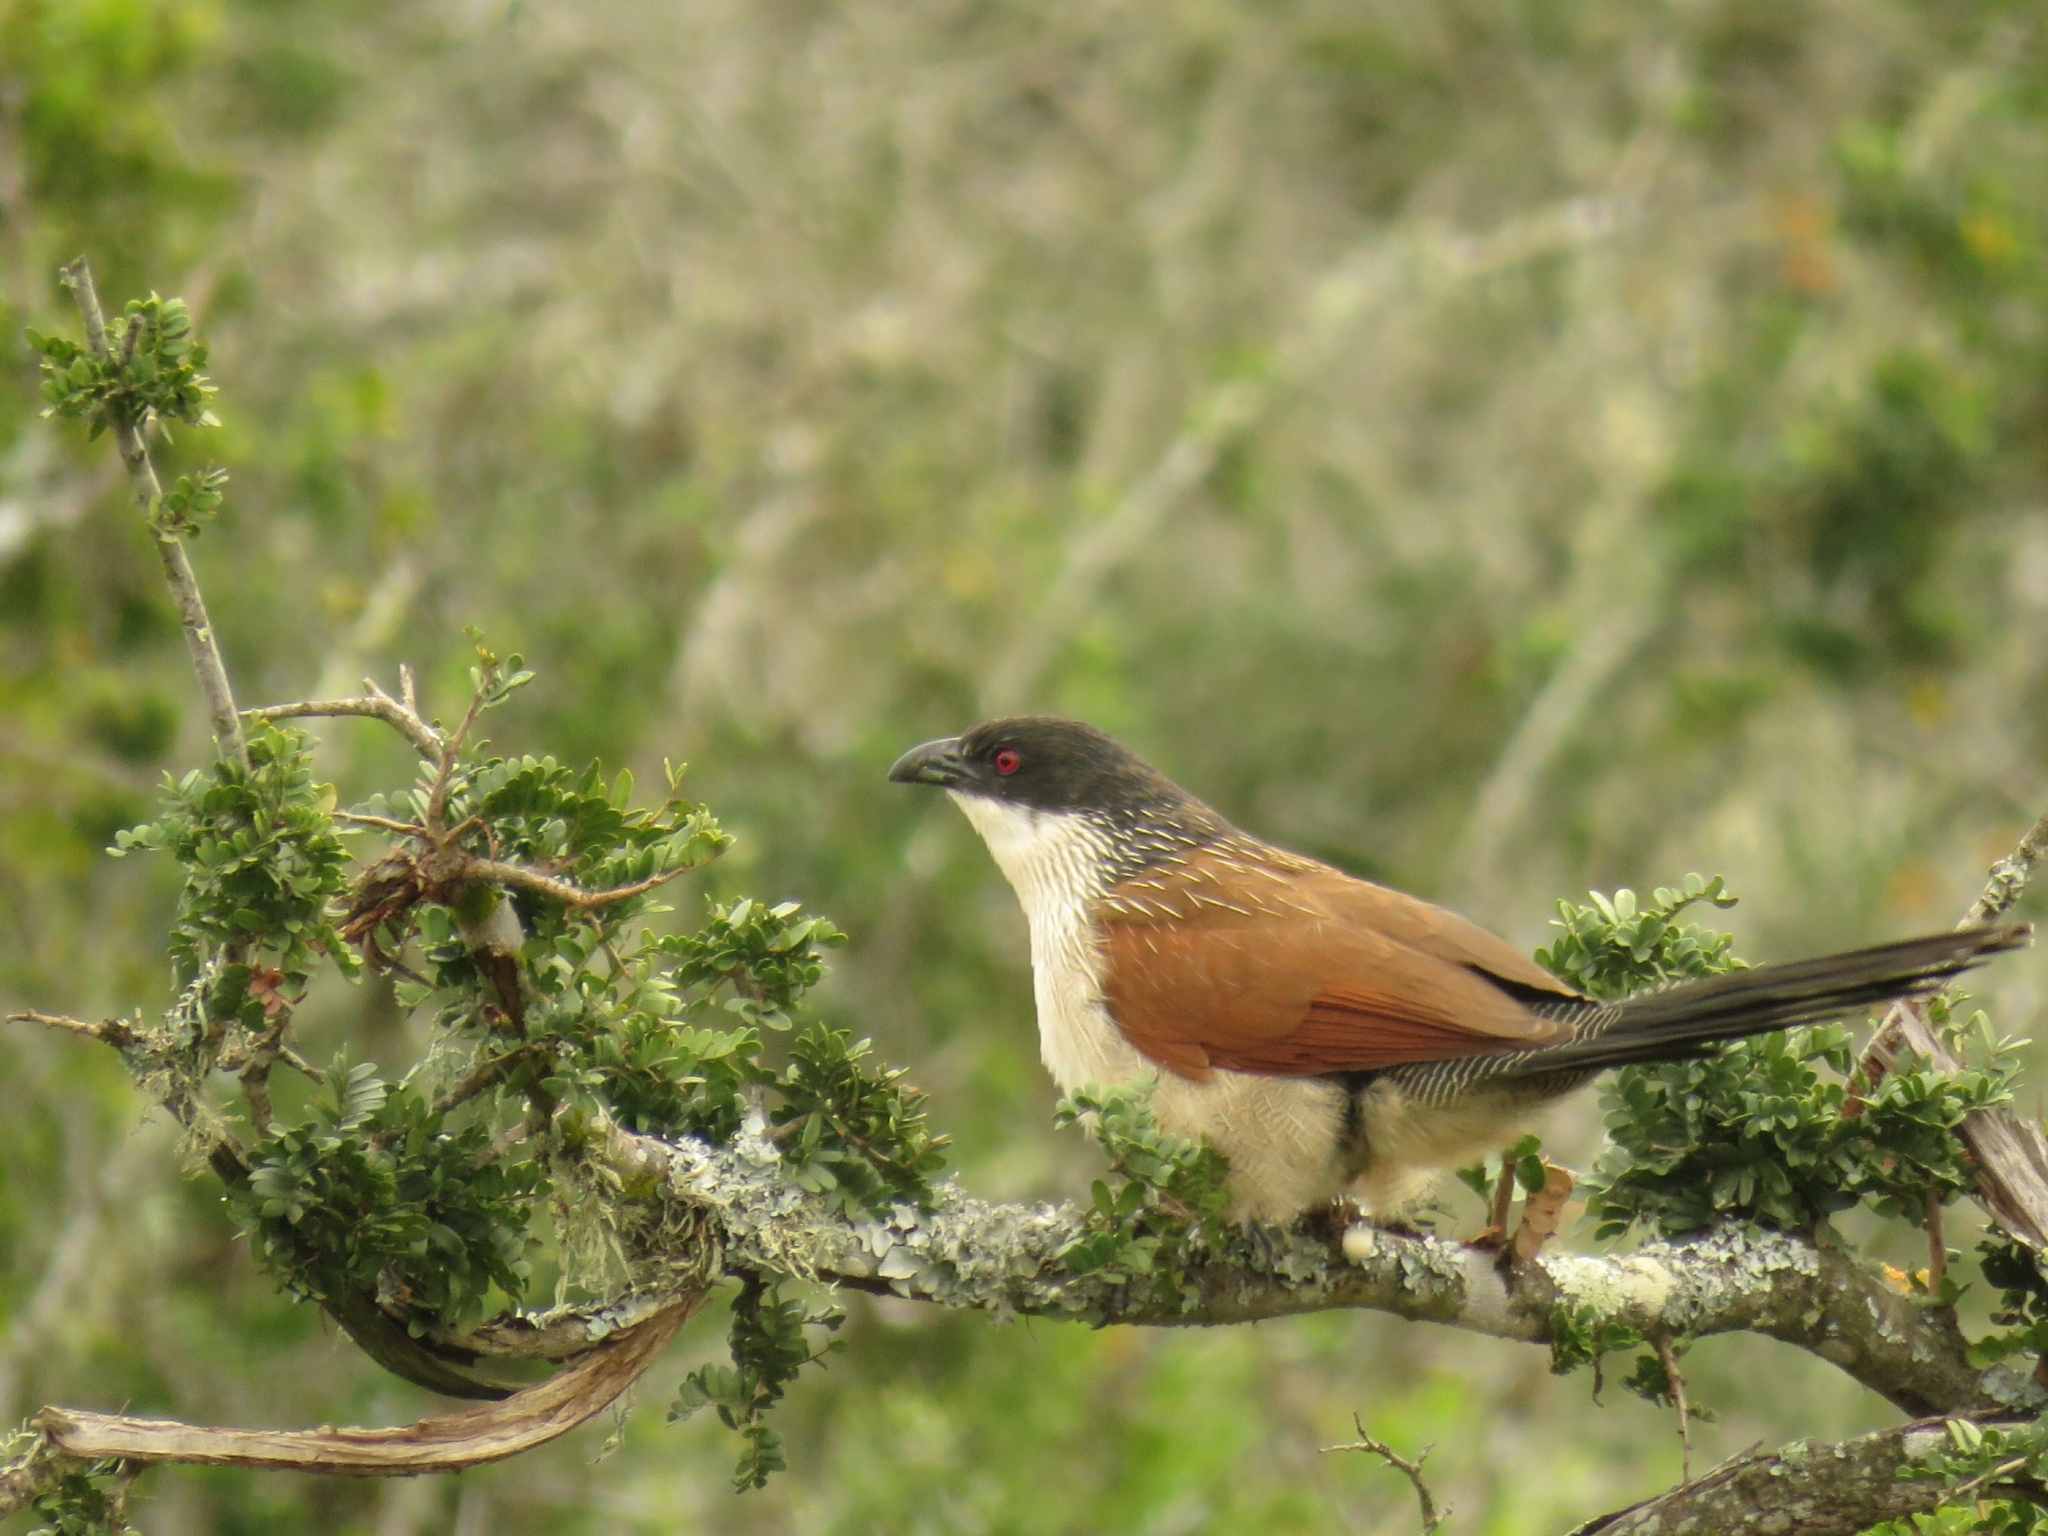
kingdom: Animalia
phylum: Chordata
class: Aves
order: Cuculiformes
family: Cuculidae
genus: Centropus
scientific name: Centropus superciliosus
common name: White-browed coucal
